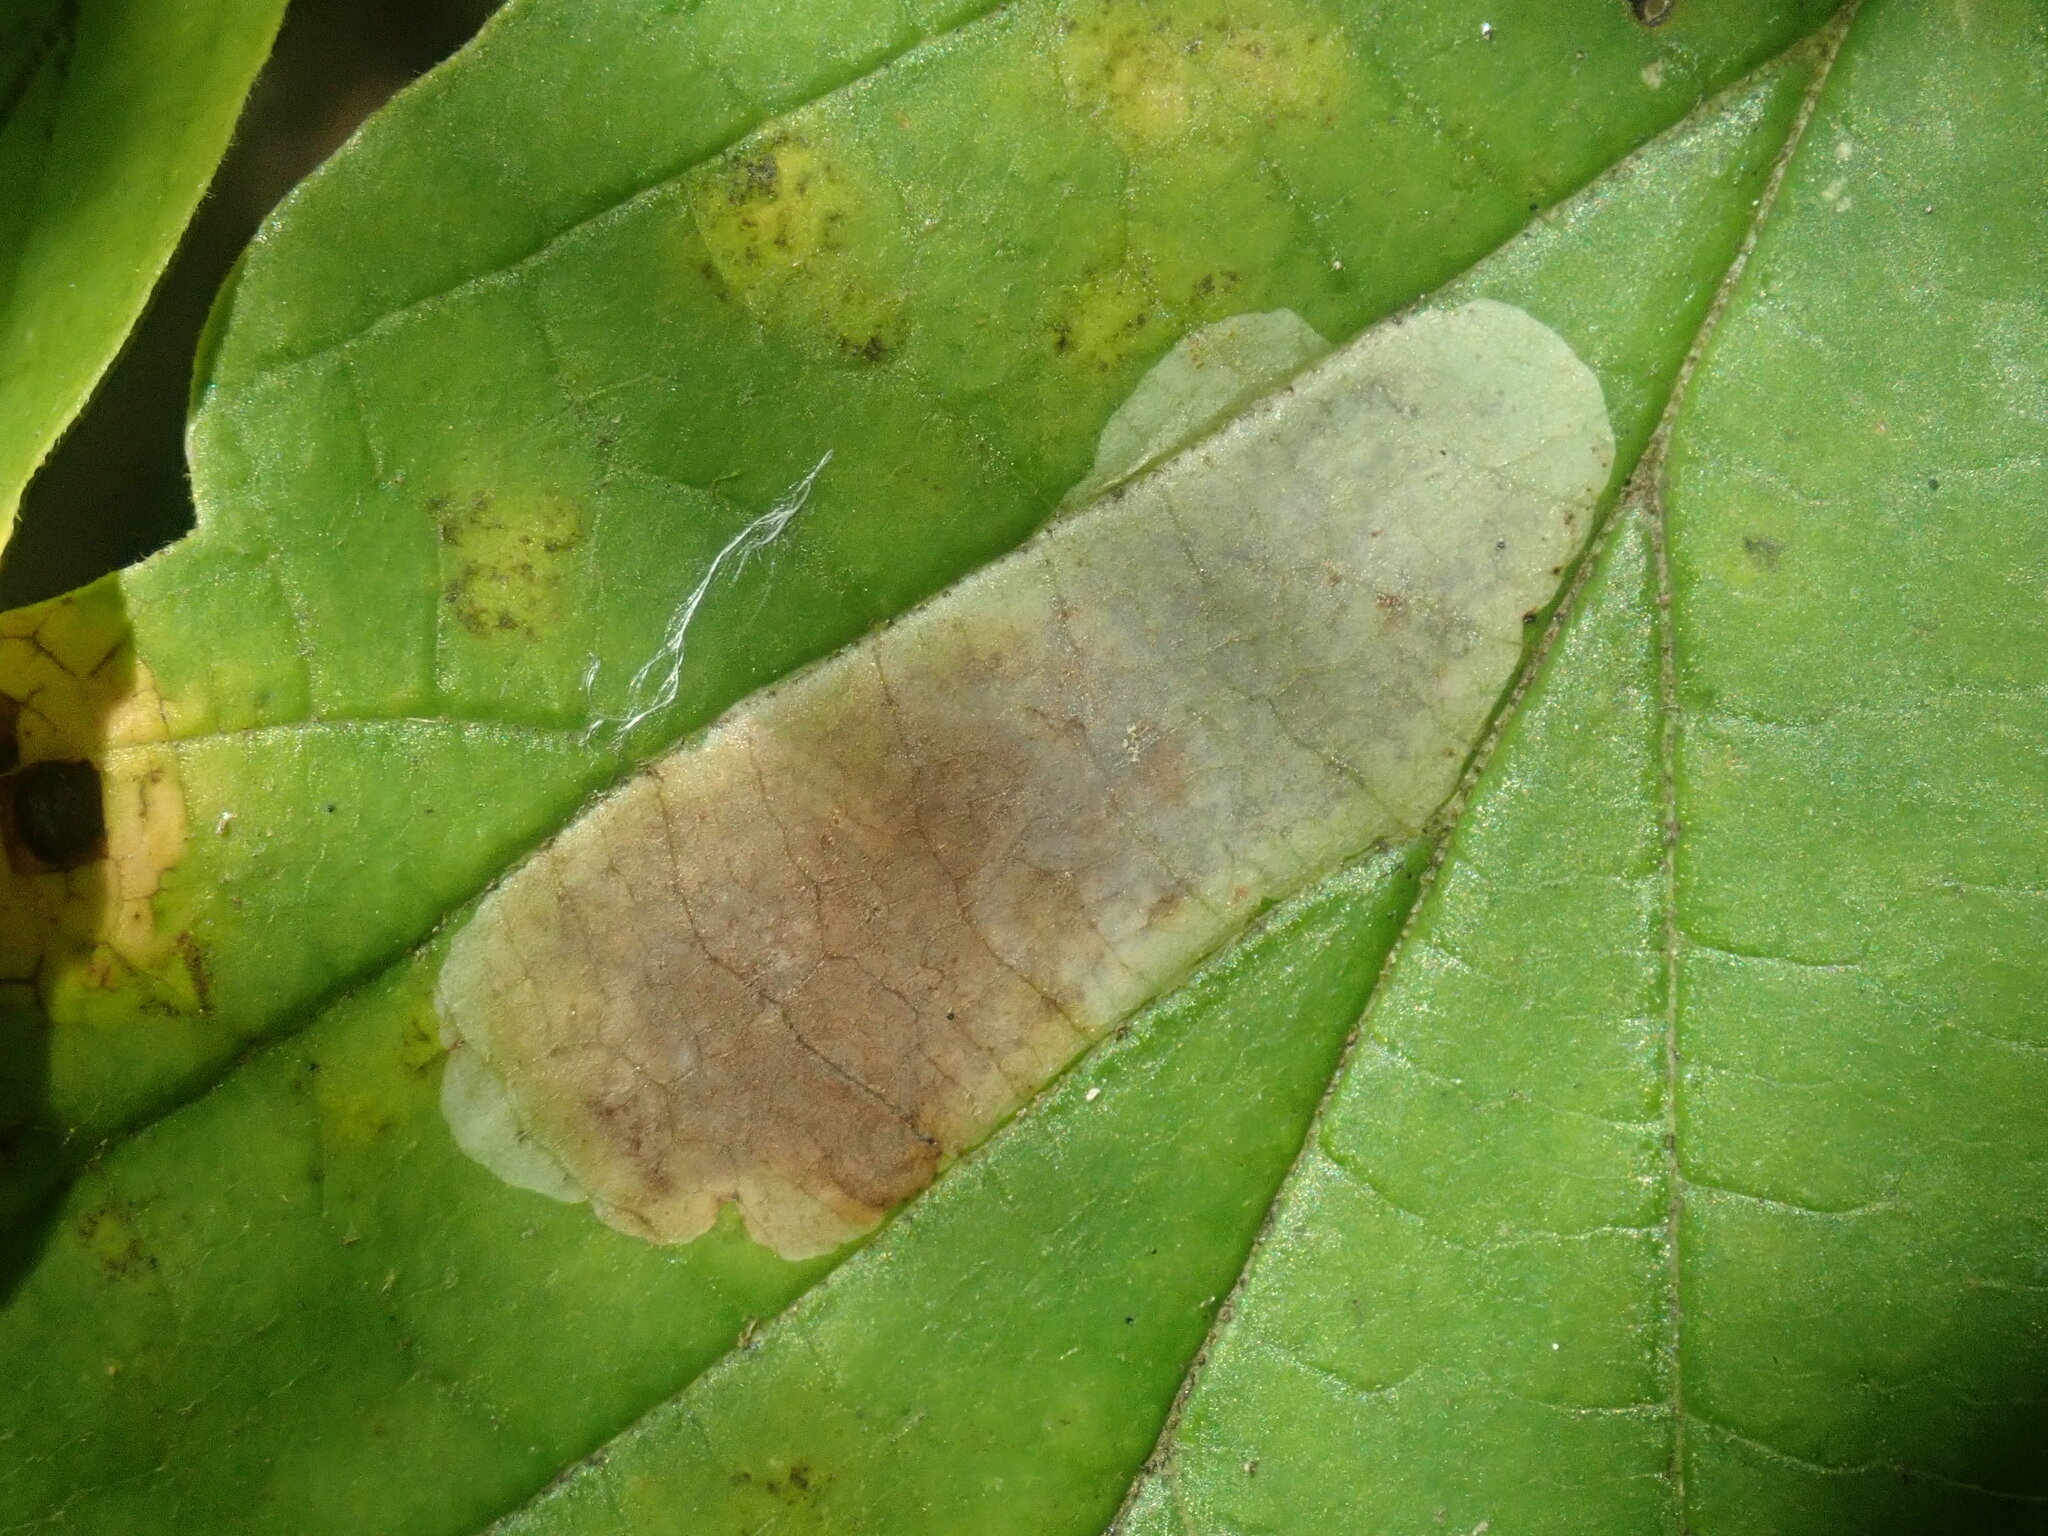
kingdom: Animalia
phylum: Arthropoda
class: Insecta
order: Lepidoptera
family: Gracillariidae
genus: Cameraria
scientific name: Cameraria hamameliella
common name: Witchhazel leafminer
